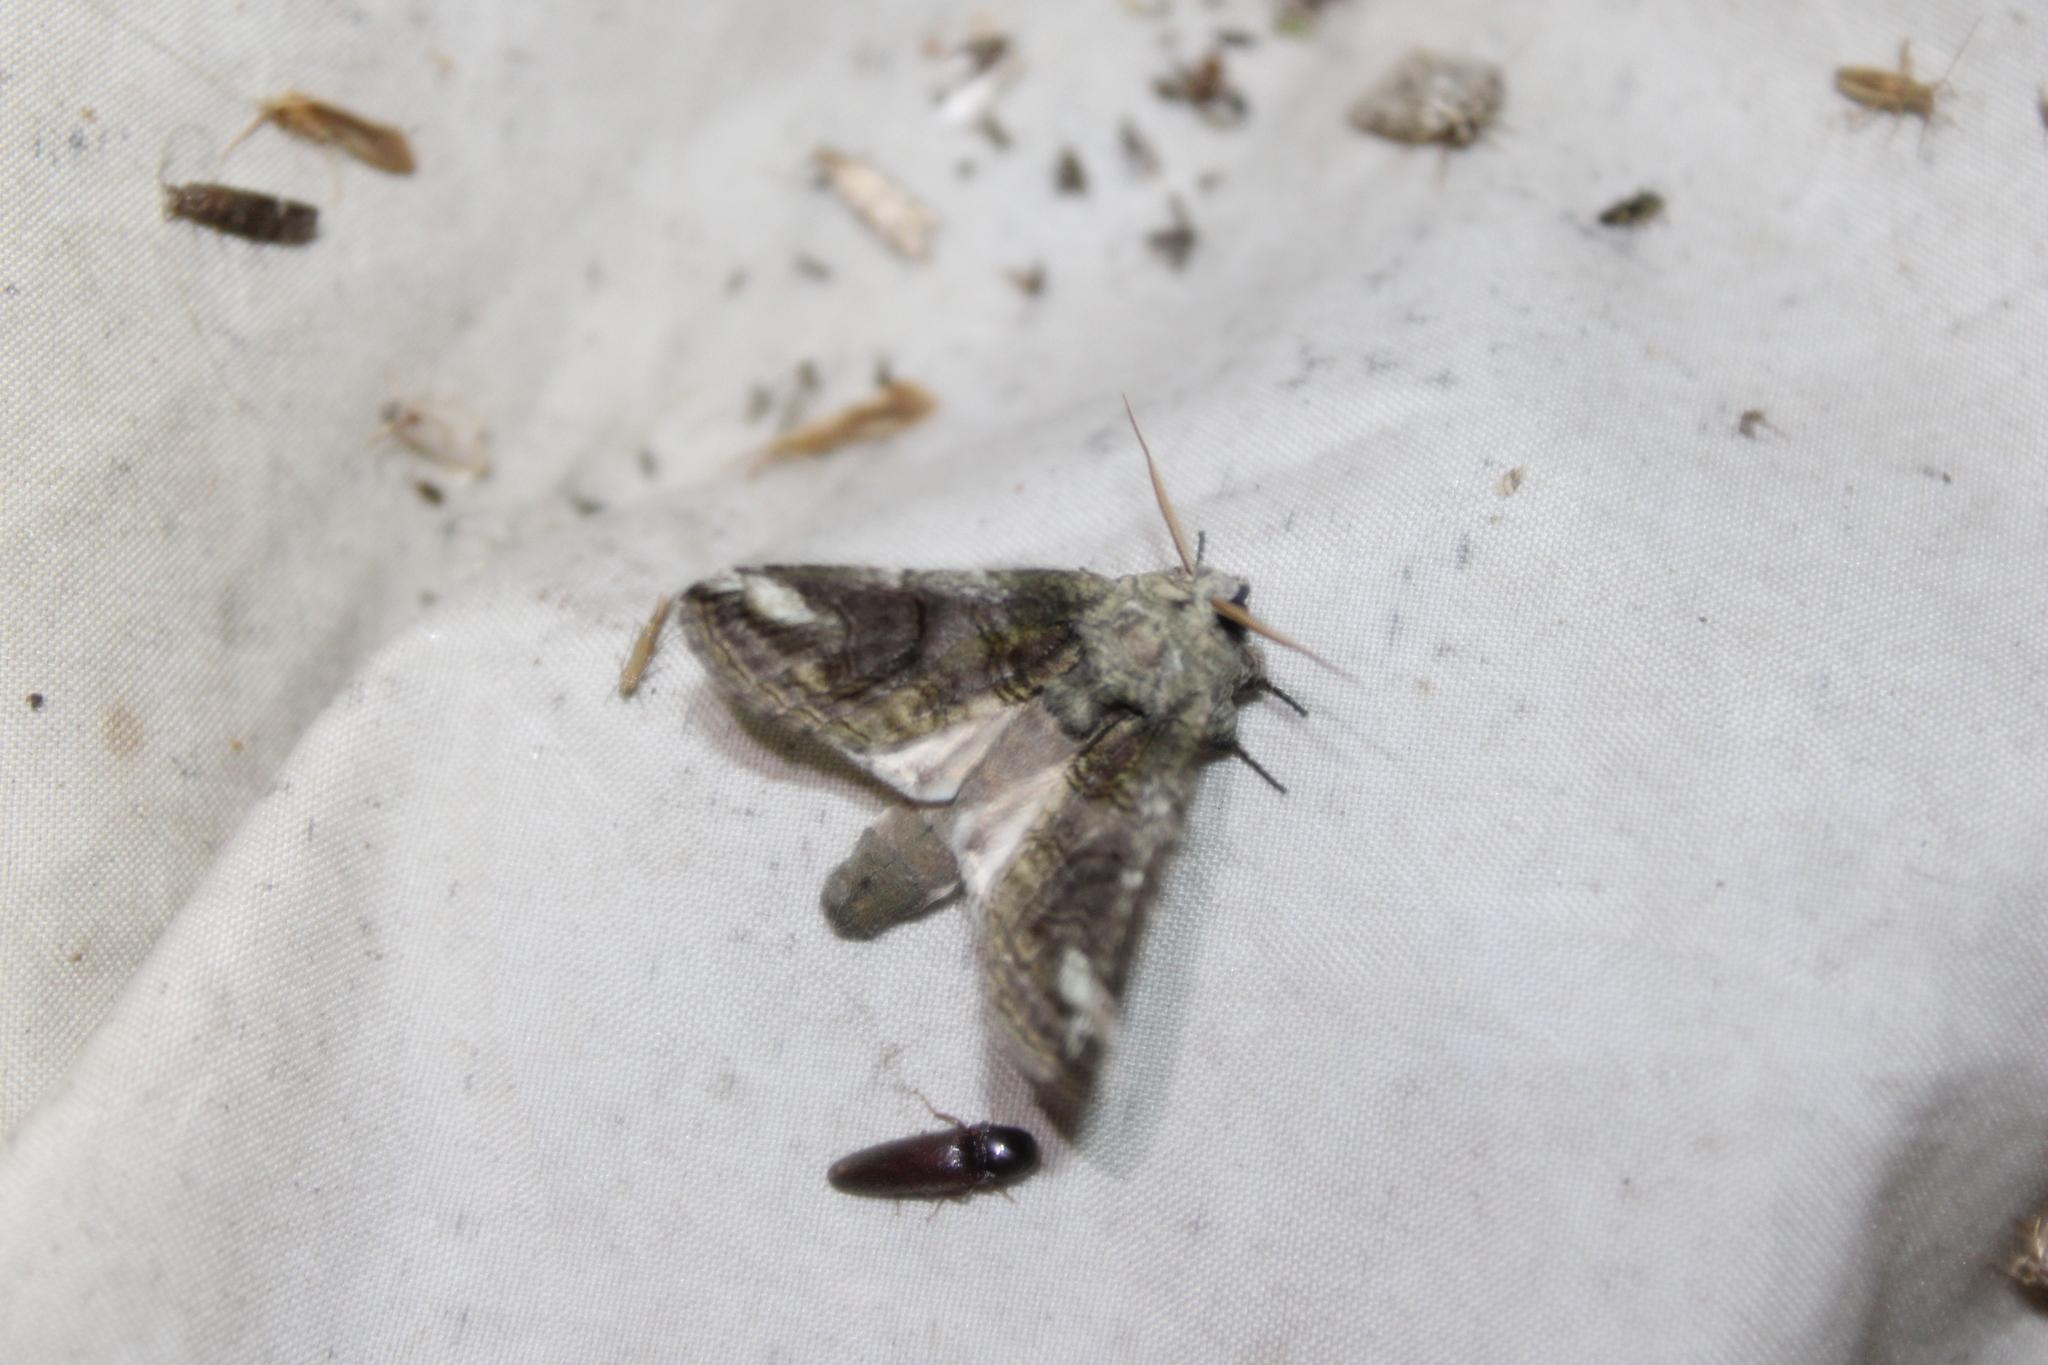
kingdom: Animalia
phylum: Arthropoda
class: Insecta
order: Lepidoptera
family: Notodontidae
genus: Heterocampa
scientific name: Heterocampa obliqua
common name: Oblique heterocampa
